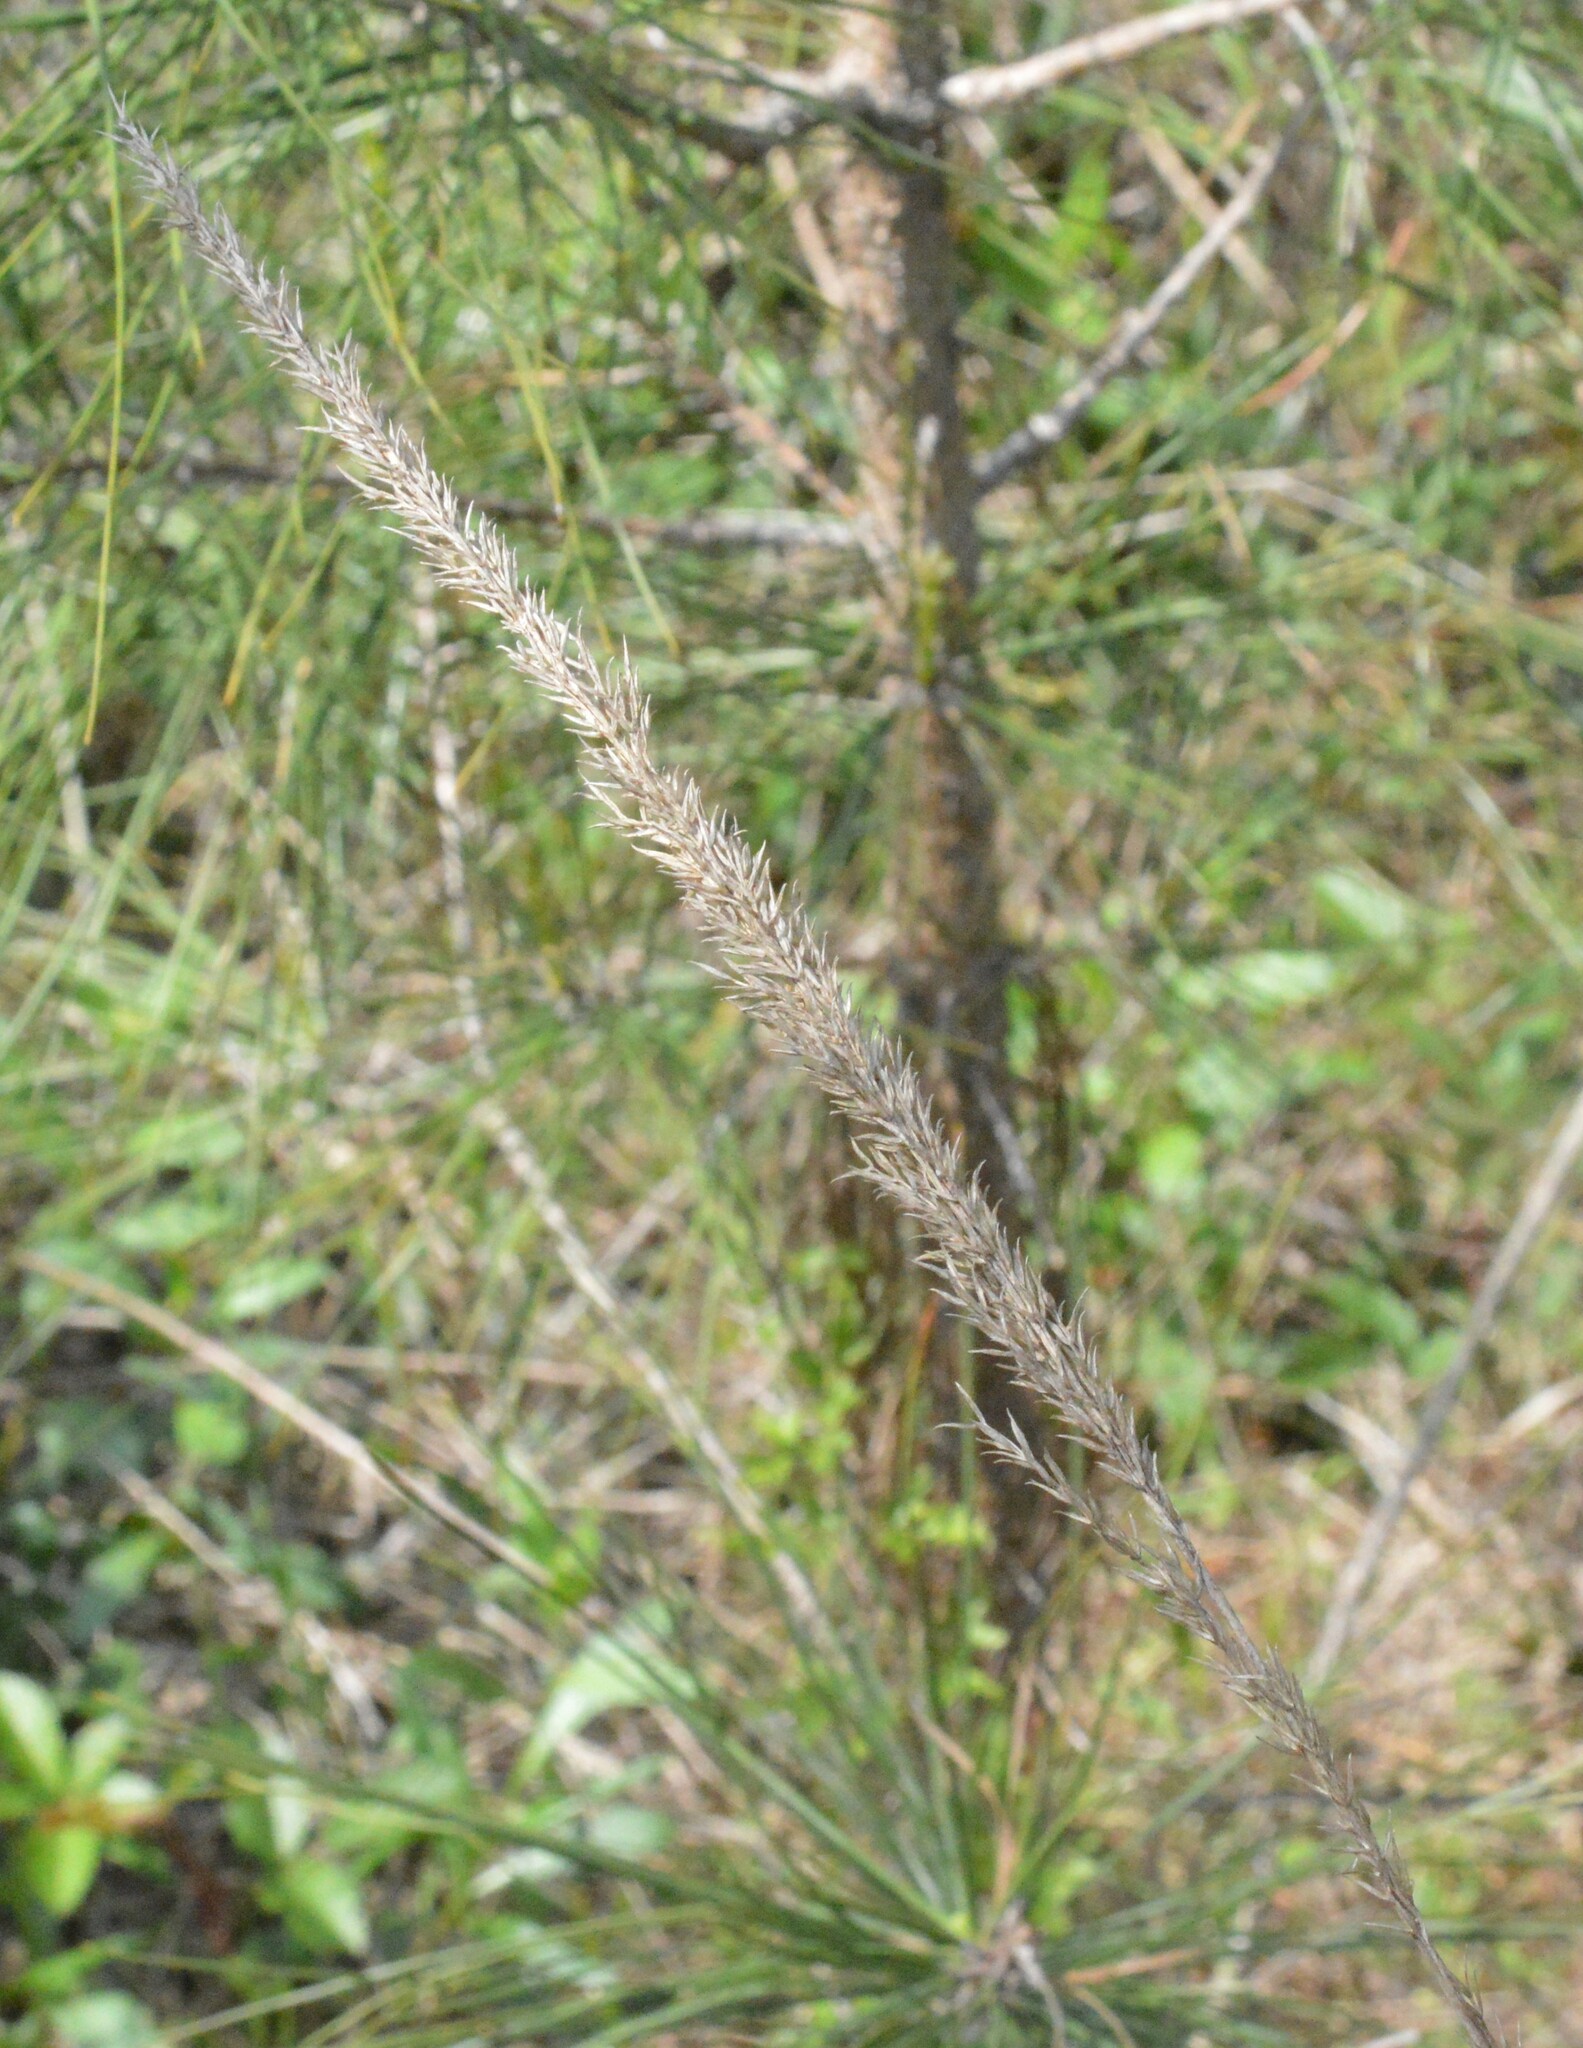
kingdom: Plantae
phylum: Tracheophyta
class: Liliopsida
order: Poales
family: Poaceae
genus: Tridens
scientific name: Tridens strictus
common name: Long-spike tridens
